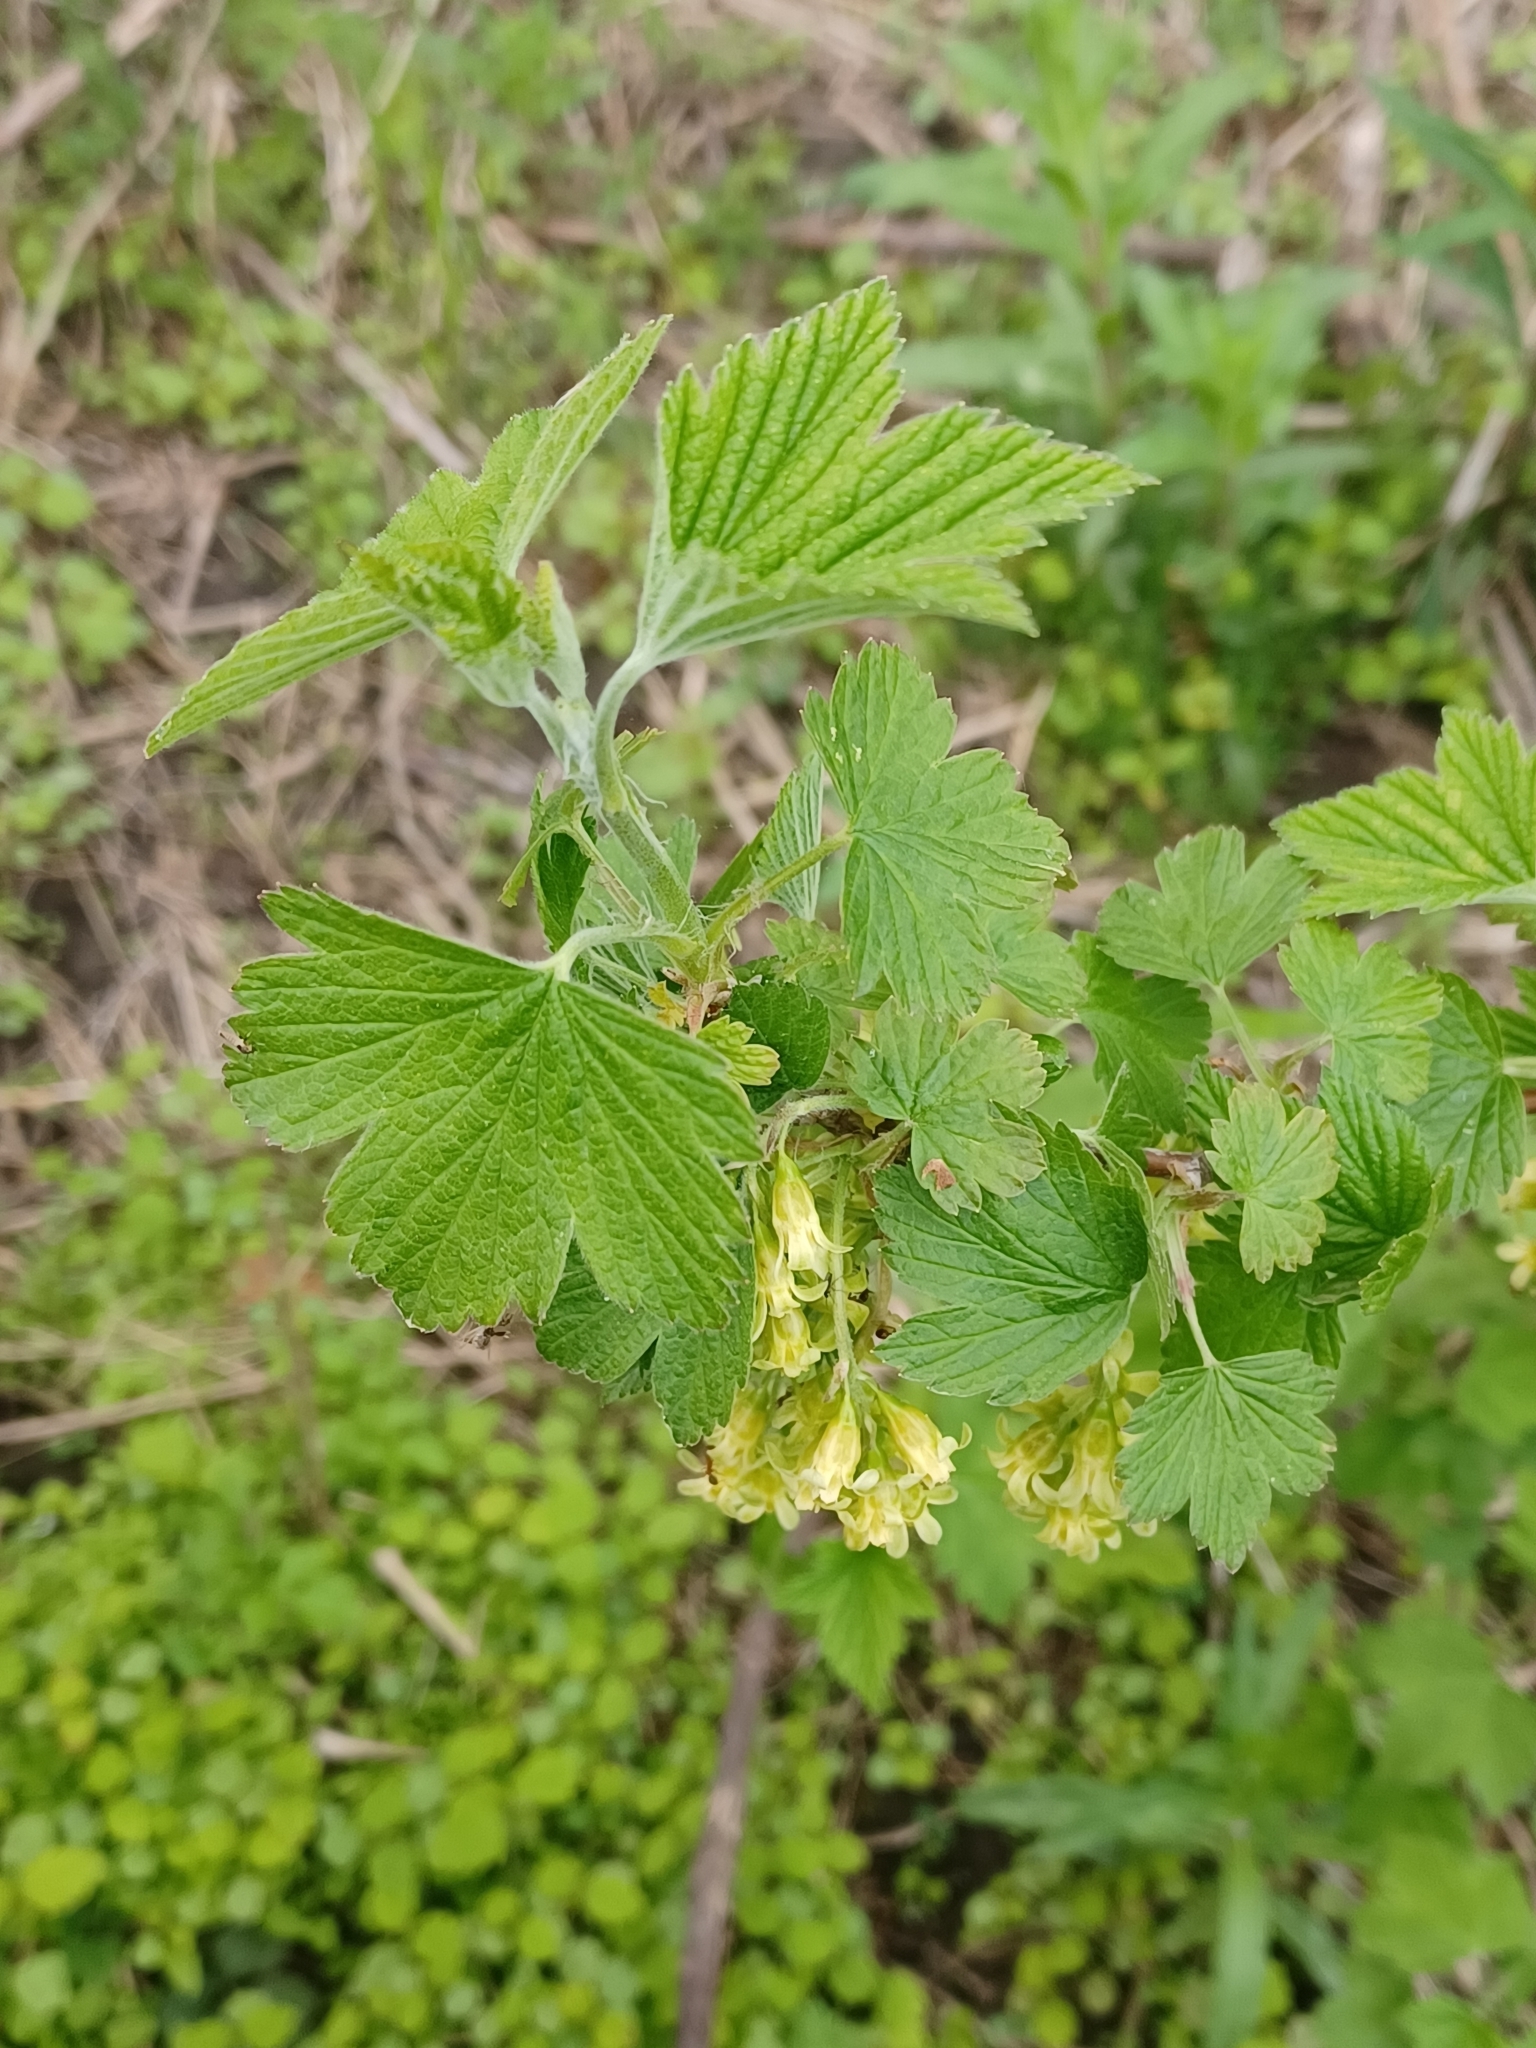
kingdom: Plantae
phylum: Tracheophyta
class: Magnoliopsida
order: Saxifragales
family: Grossulariaceae
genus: Ribes
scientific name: Ribes americanum
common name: American black currant
